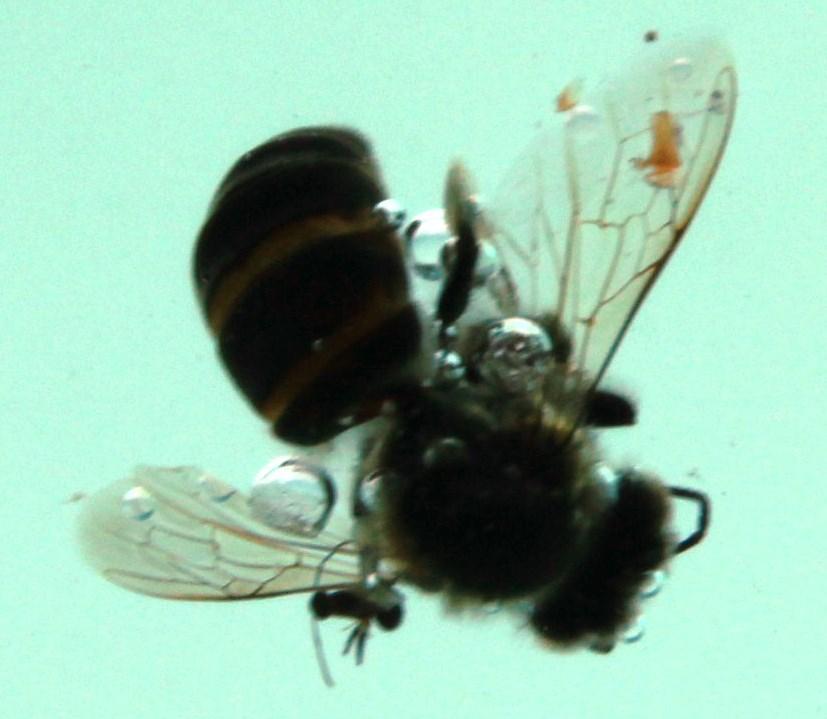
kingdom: Animalia
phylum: Arthropoda
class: Insecta
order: Hymenoptera
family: Apidae
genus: Apis
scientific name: Apis mellifera
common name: Honey bee
